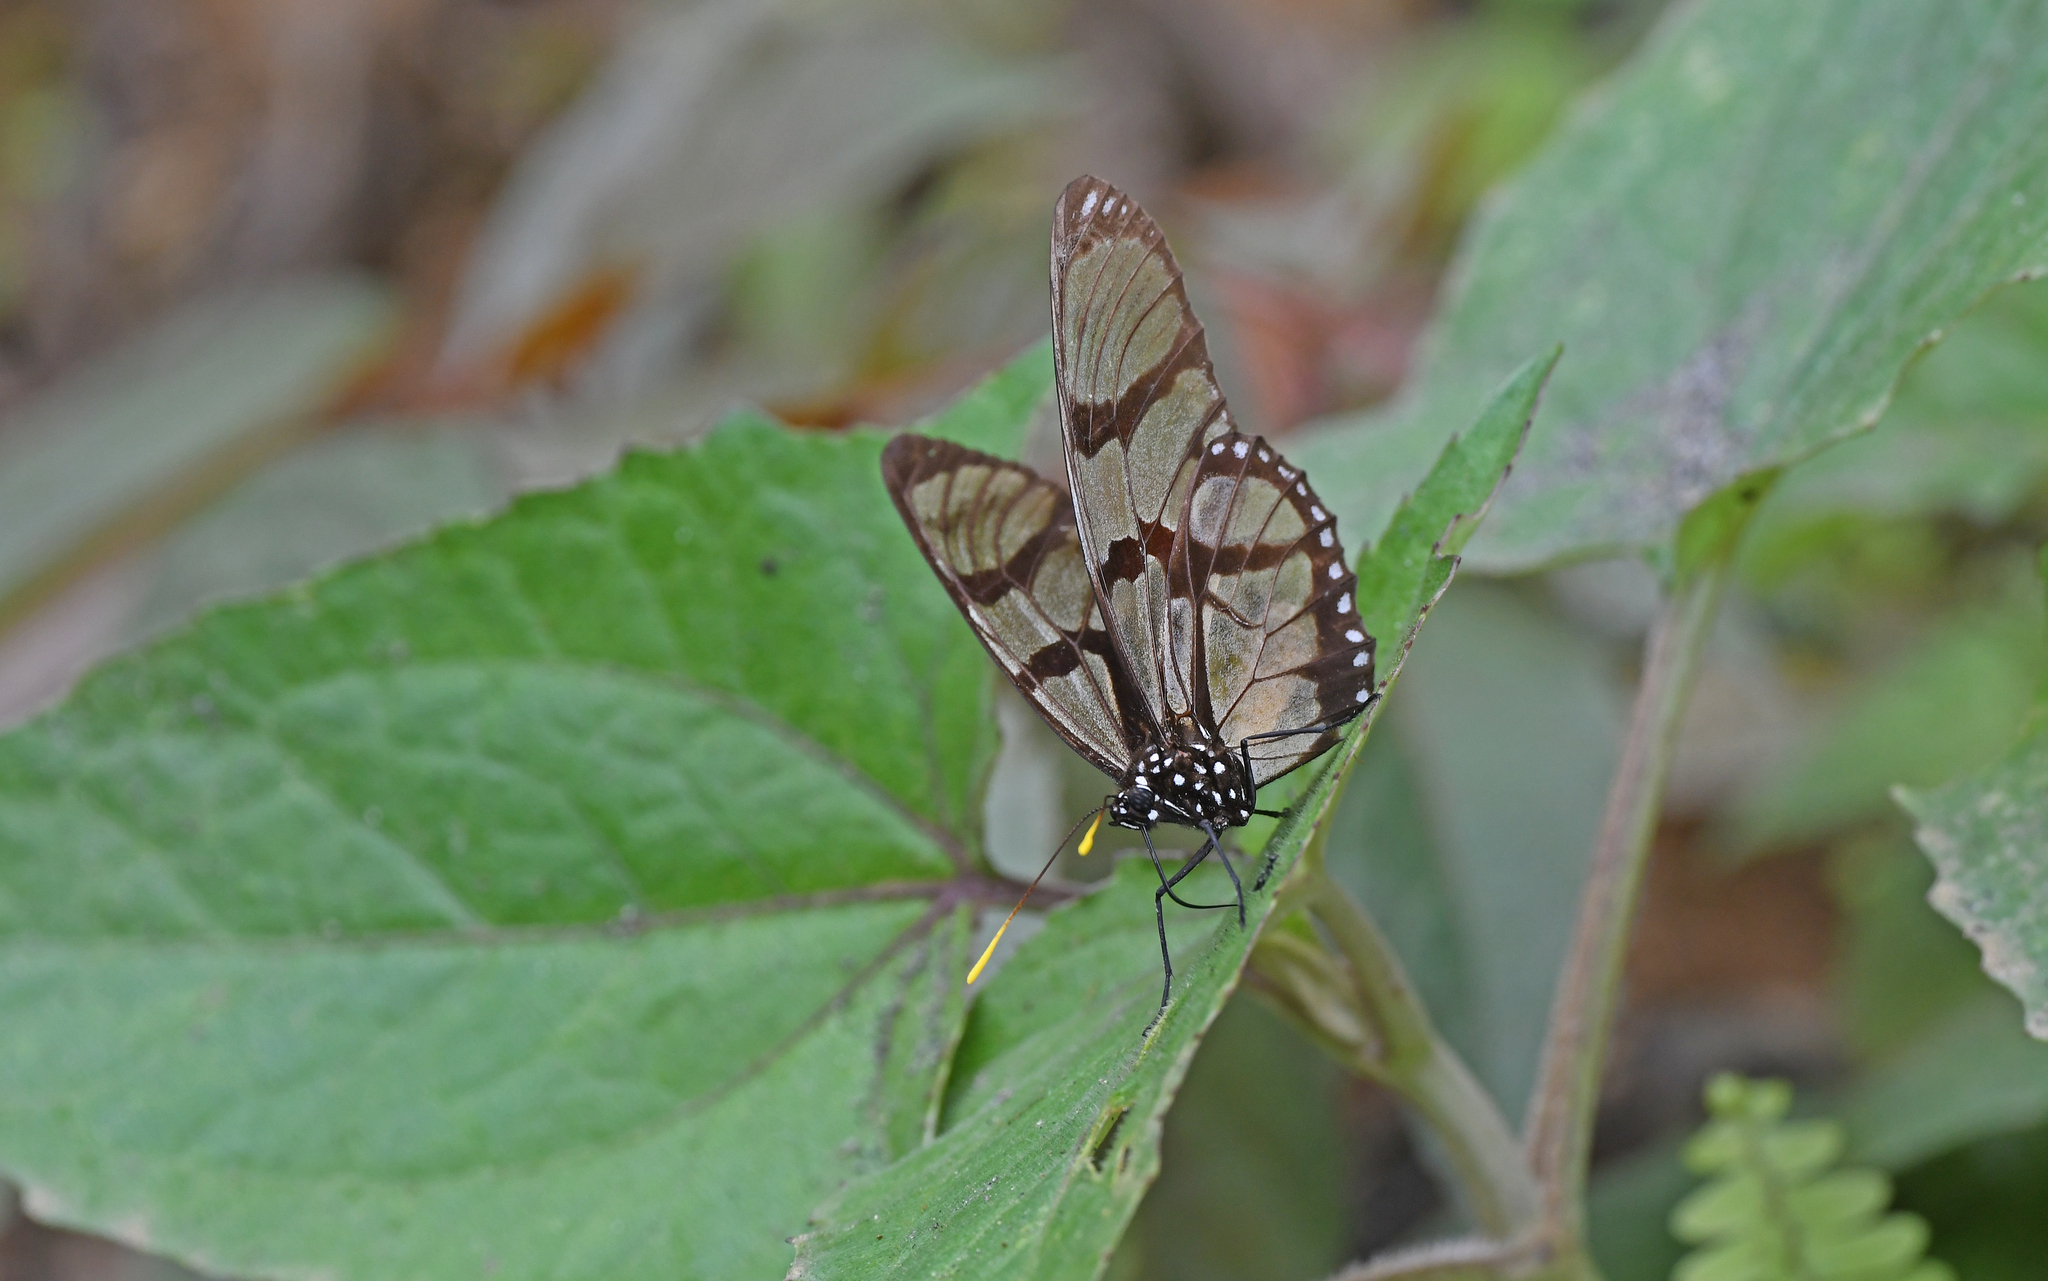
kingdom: Animalia
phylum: Arthropoda
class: Insecta
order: Lepidoptera
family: Nymphalidae
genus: Lycorea
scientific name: Lycorea ilione
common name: Clearwing mimic-queen
